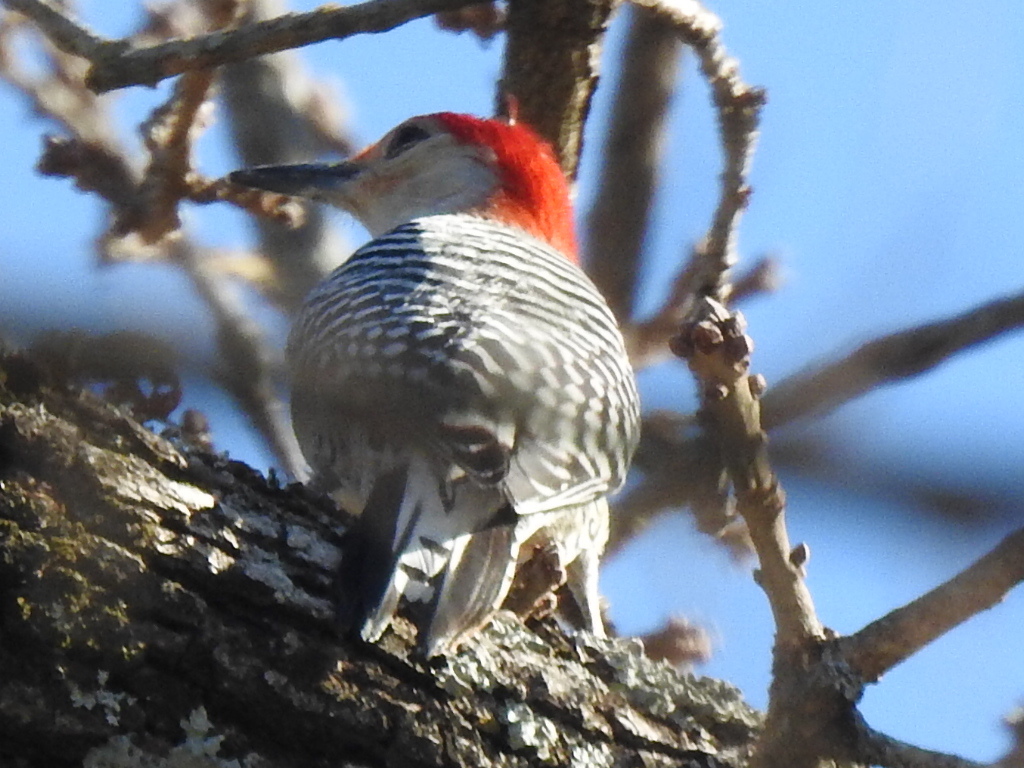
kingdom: Animalia
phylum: Chordata
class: Aves
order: Piciformes
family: Picidae
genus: Melanerpes
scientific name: Melanerpes carolinus
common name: Red-bellied woodpecker
